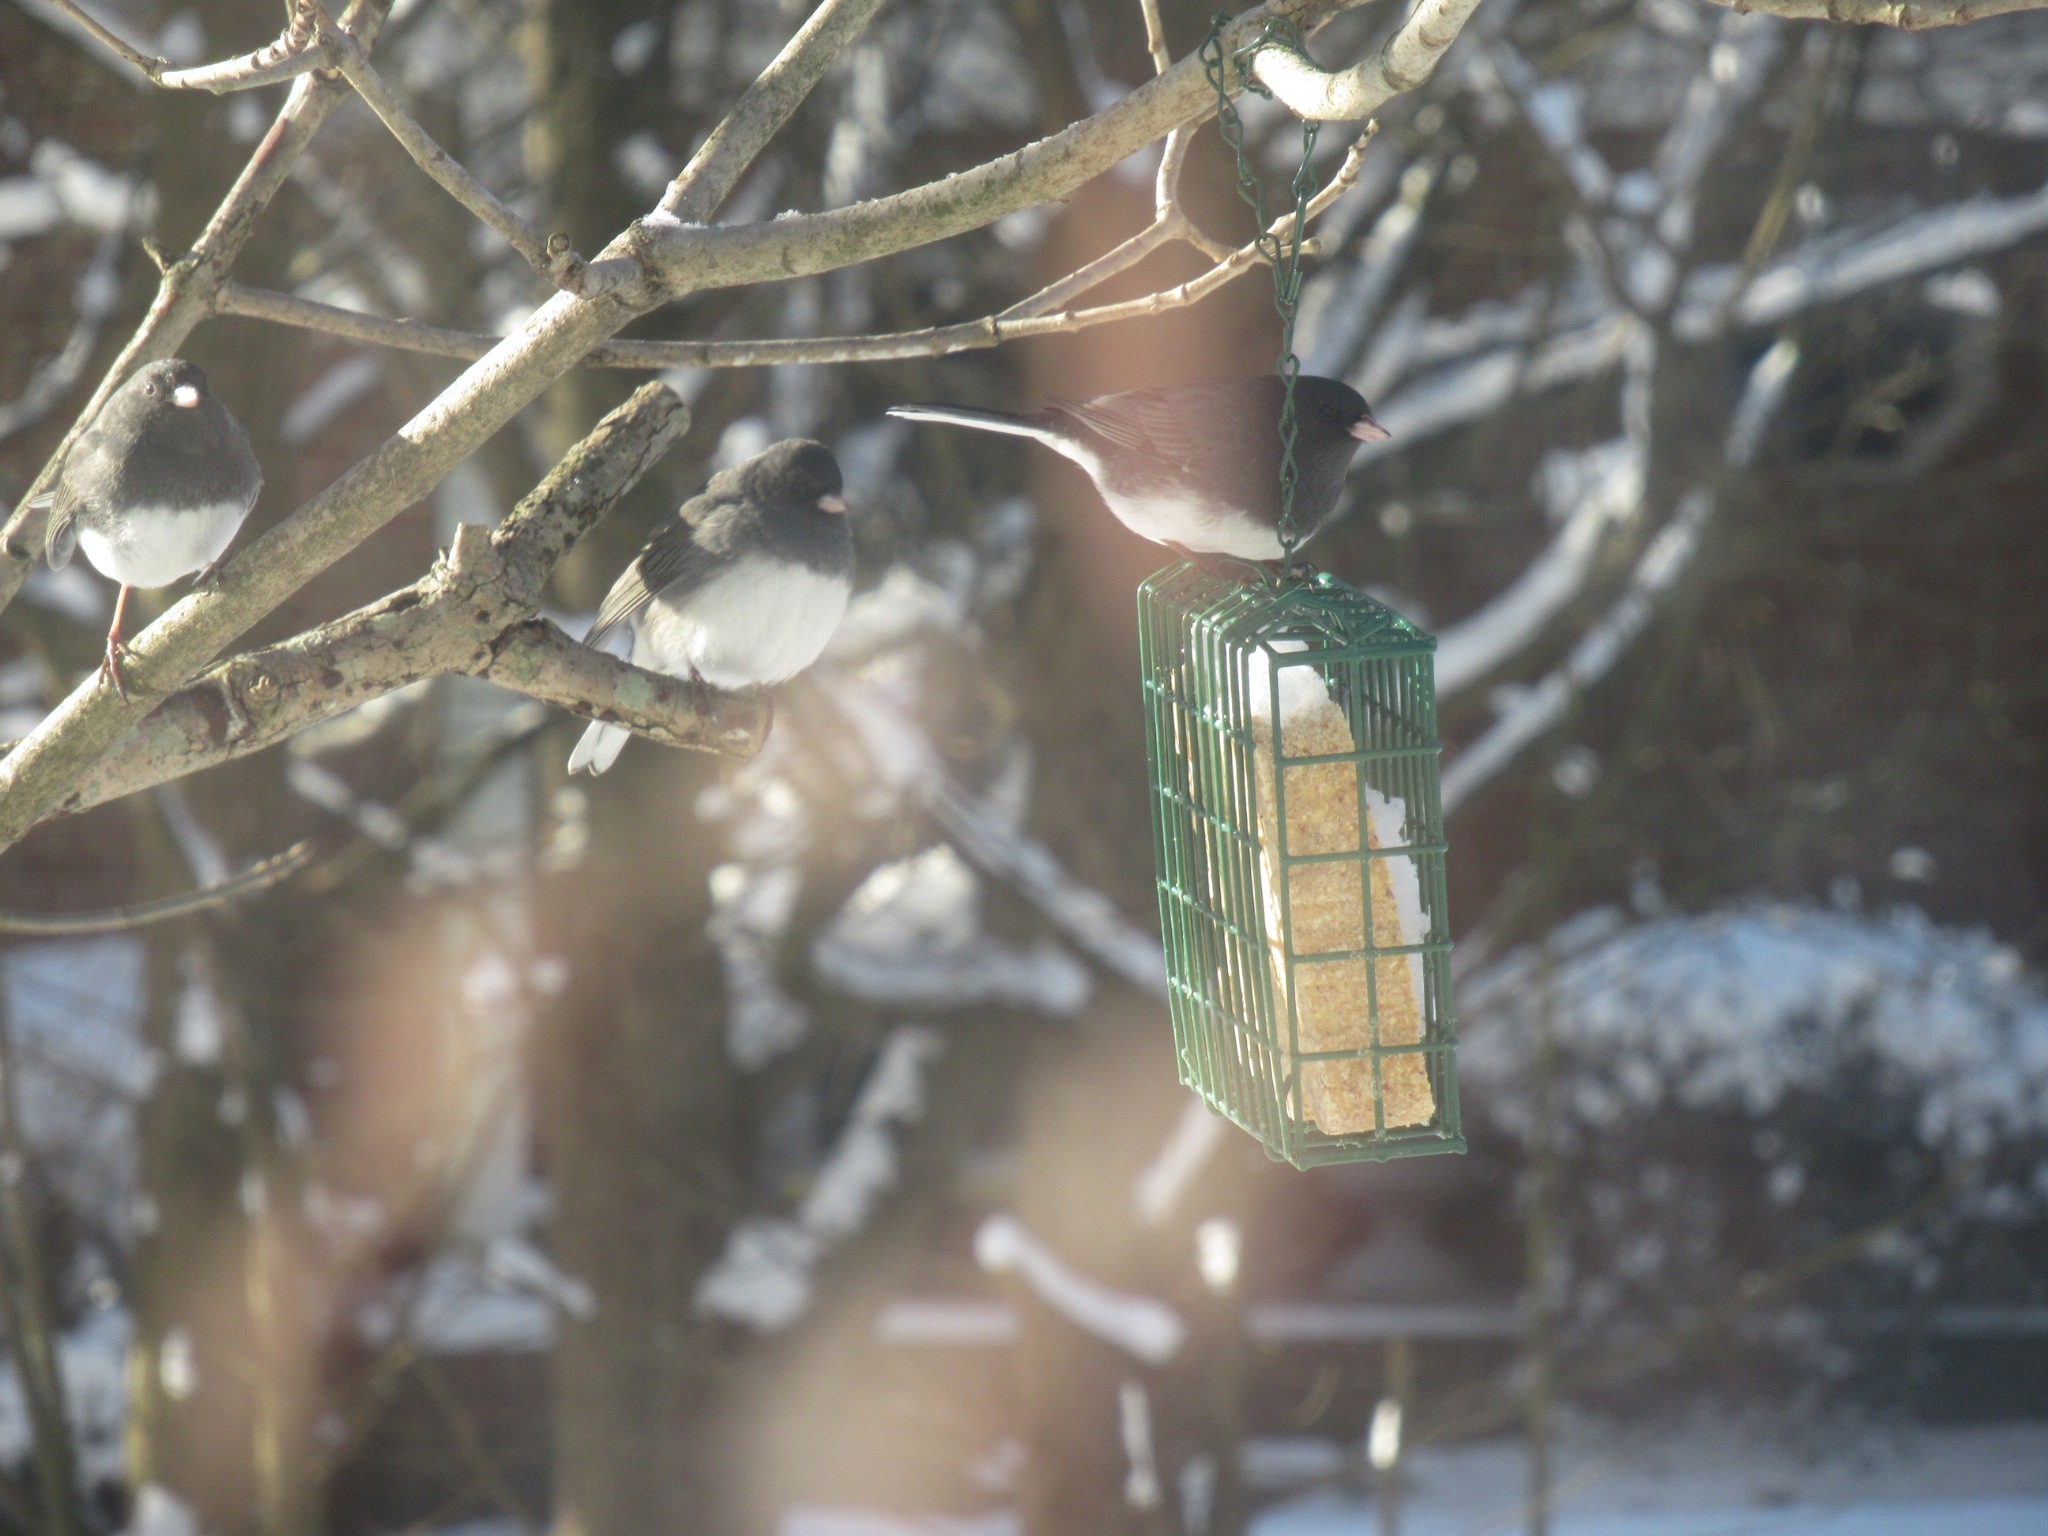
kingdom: Animalia
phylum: Chordata
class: Aves
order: Passeriformes
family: Passerellidae
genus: Junco
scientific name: Junco hyemalis
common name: Dark-eyed junco
